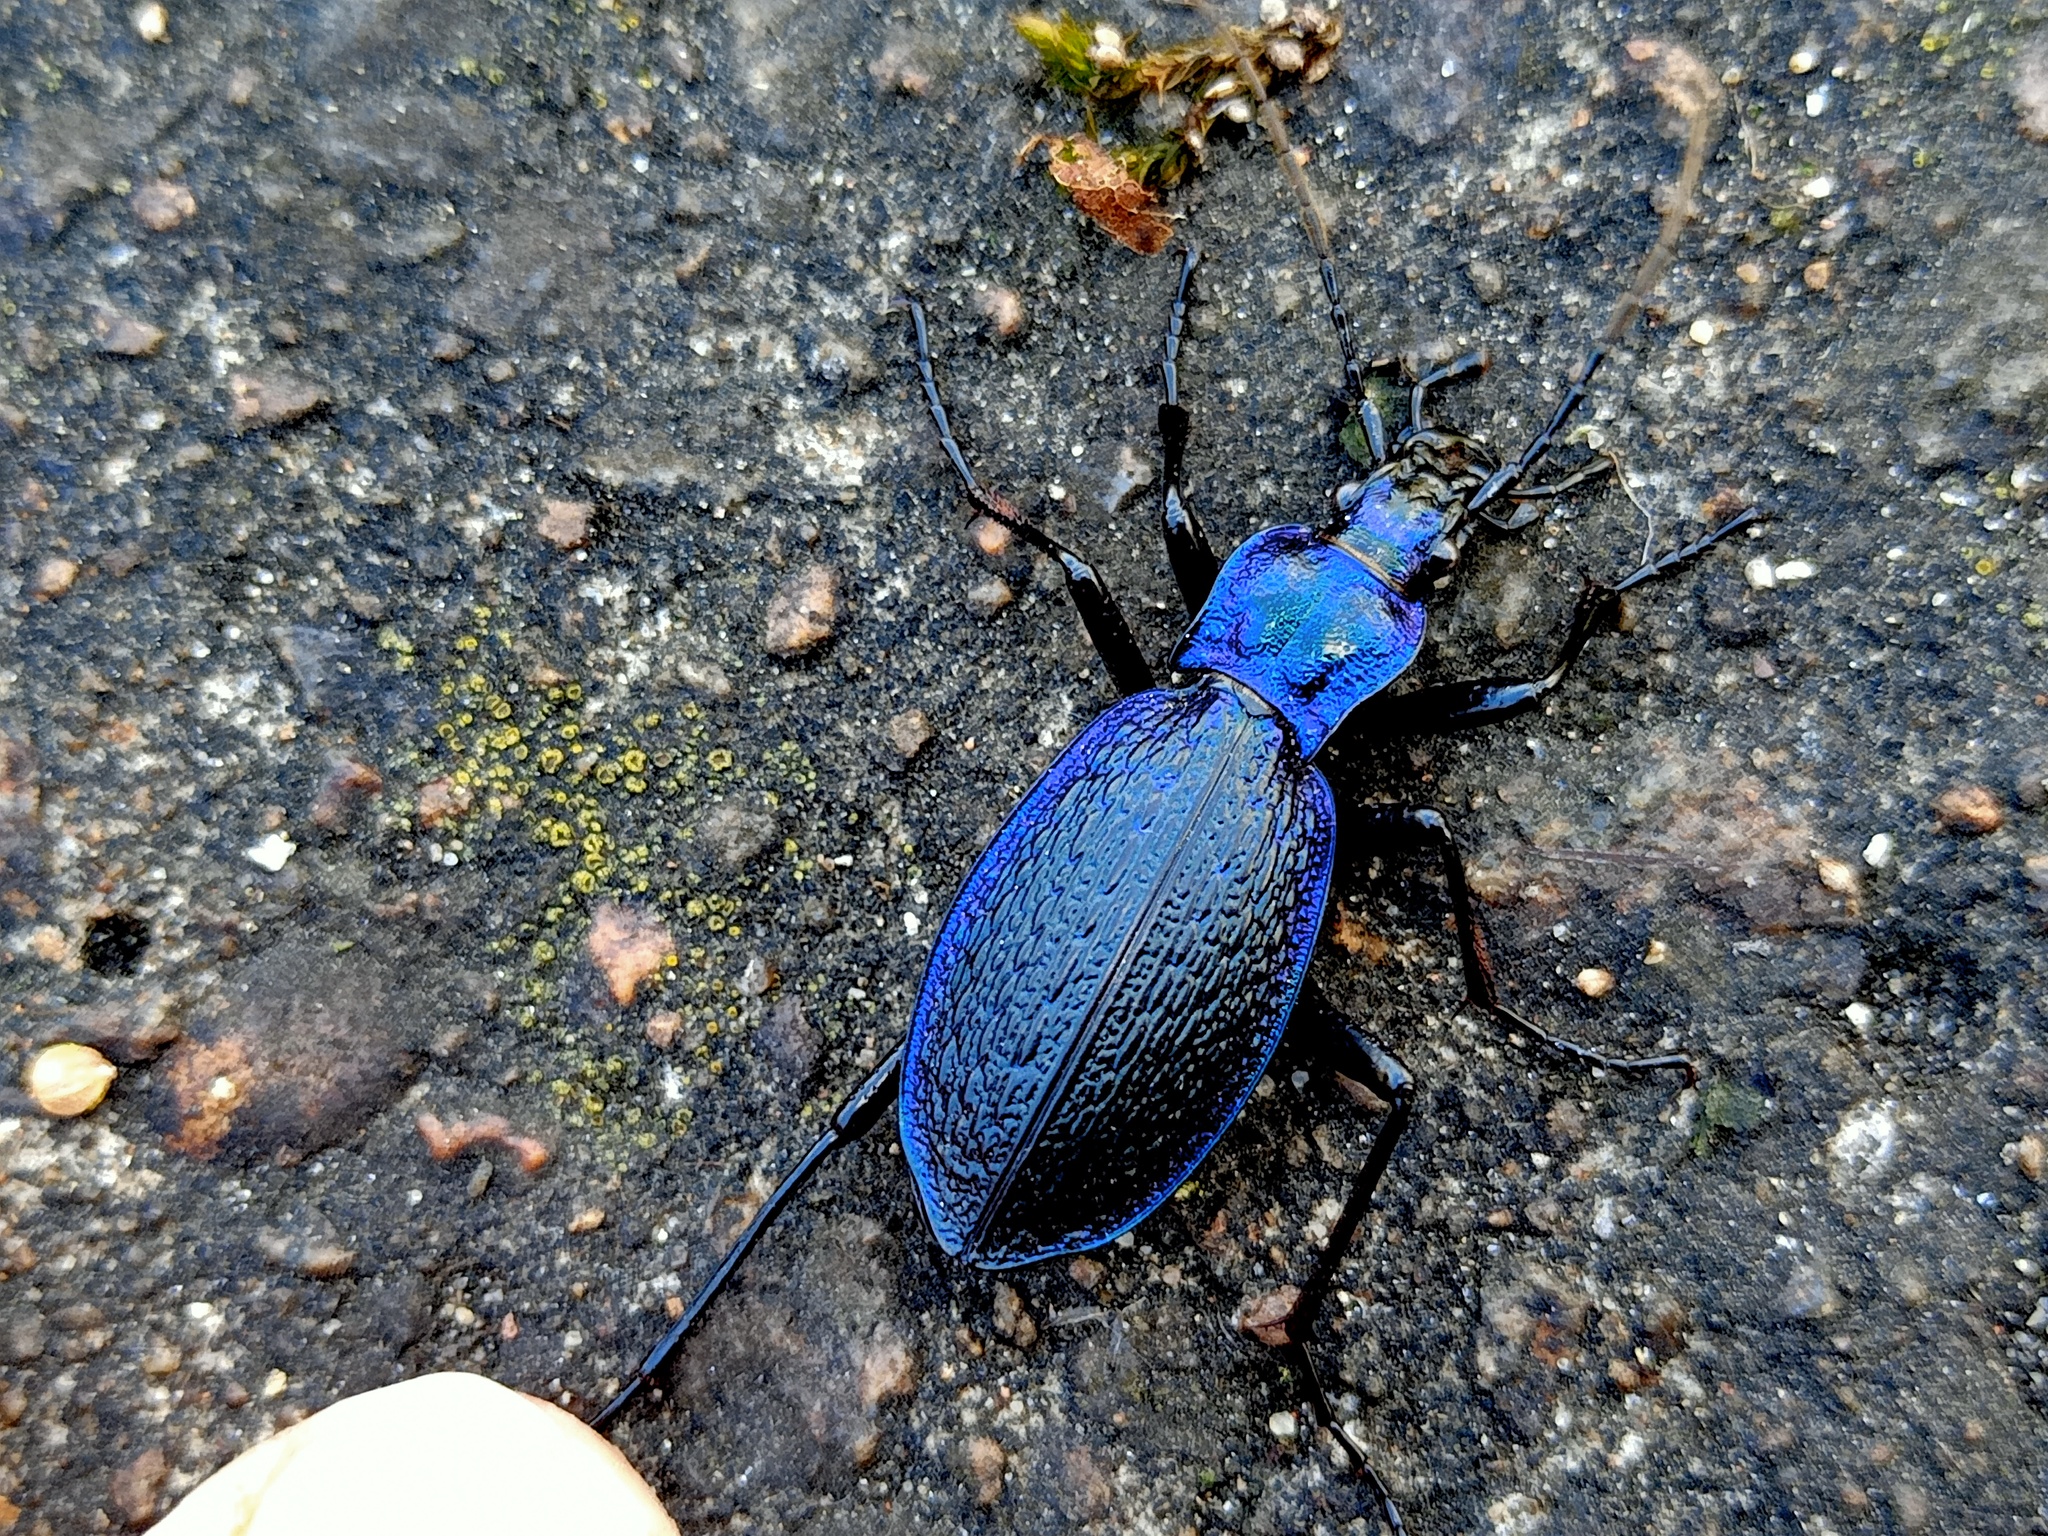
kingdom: Animalia
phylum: Arthropoda
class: Insecta
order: Coleoptera
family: Carabidae
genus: Carabus
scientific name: Carabus intricatus
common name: Blue ground beetle
